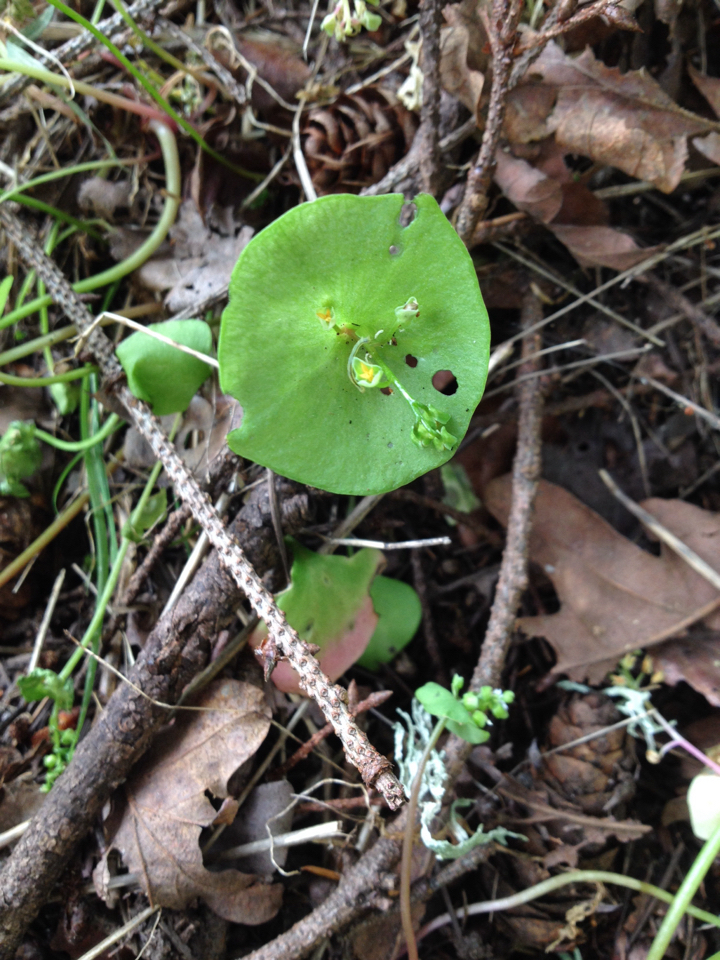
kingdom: Plantae
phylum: Tracheophyta
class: Magnoliopsida
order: Caryophyllales
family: Montiaceae
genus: Claytonia
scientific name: Claytonia perfoliata
